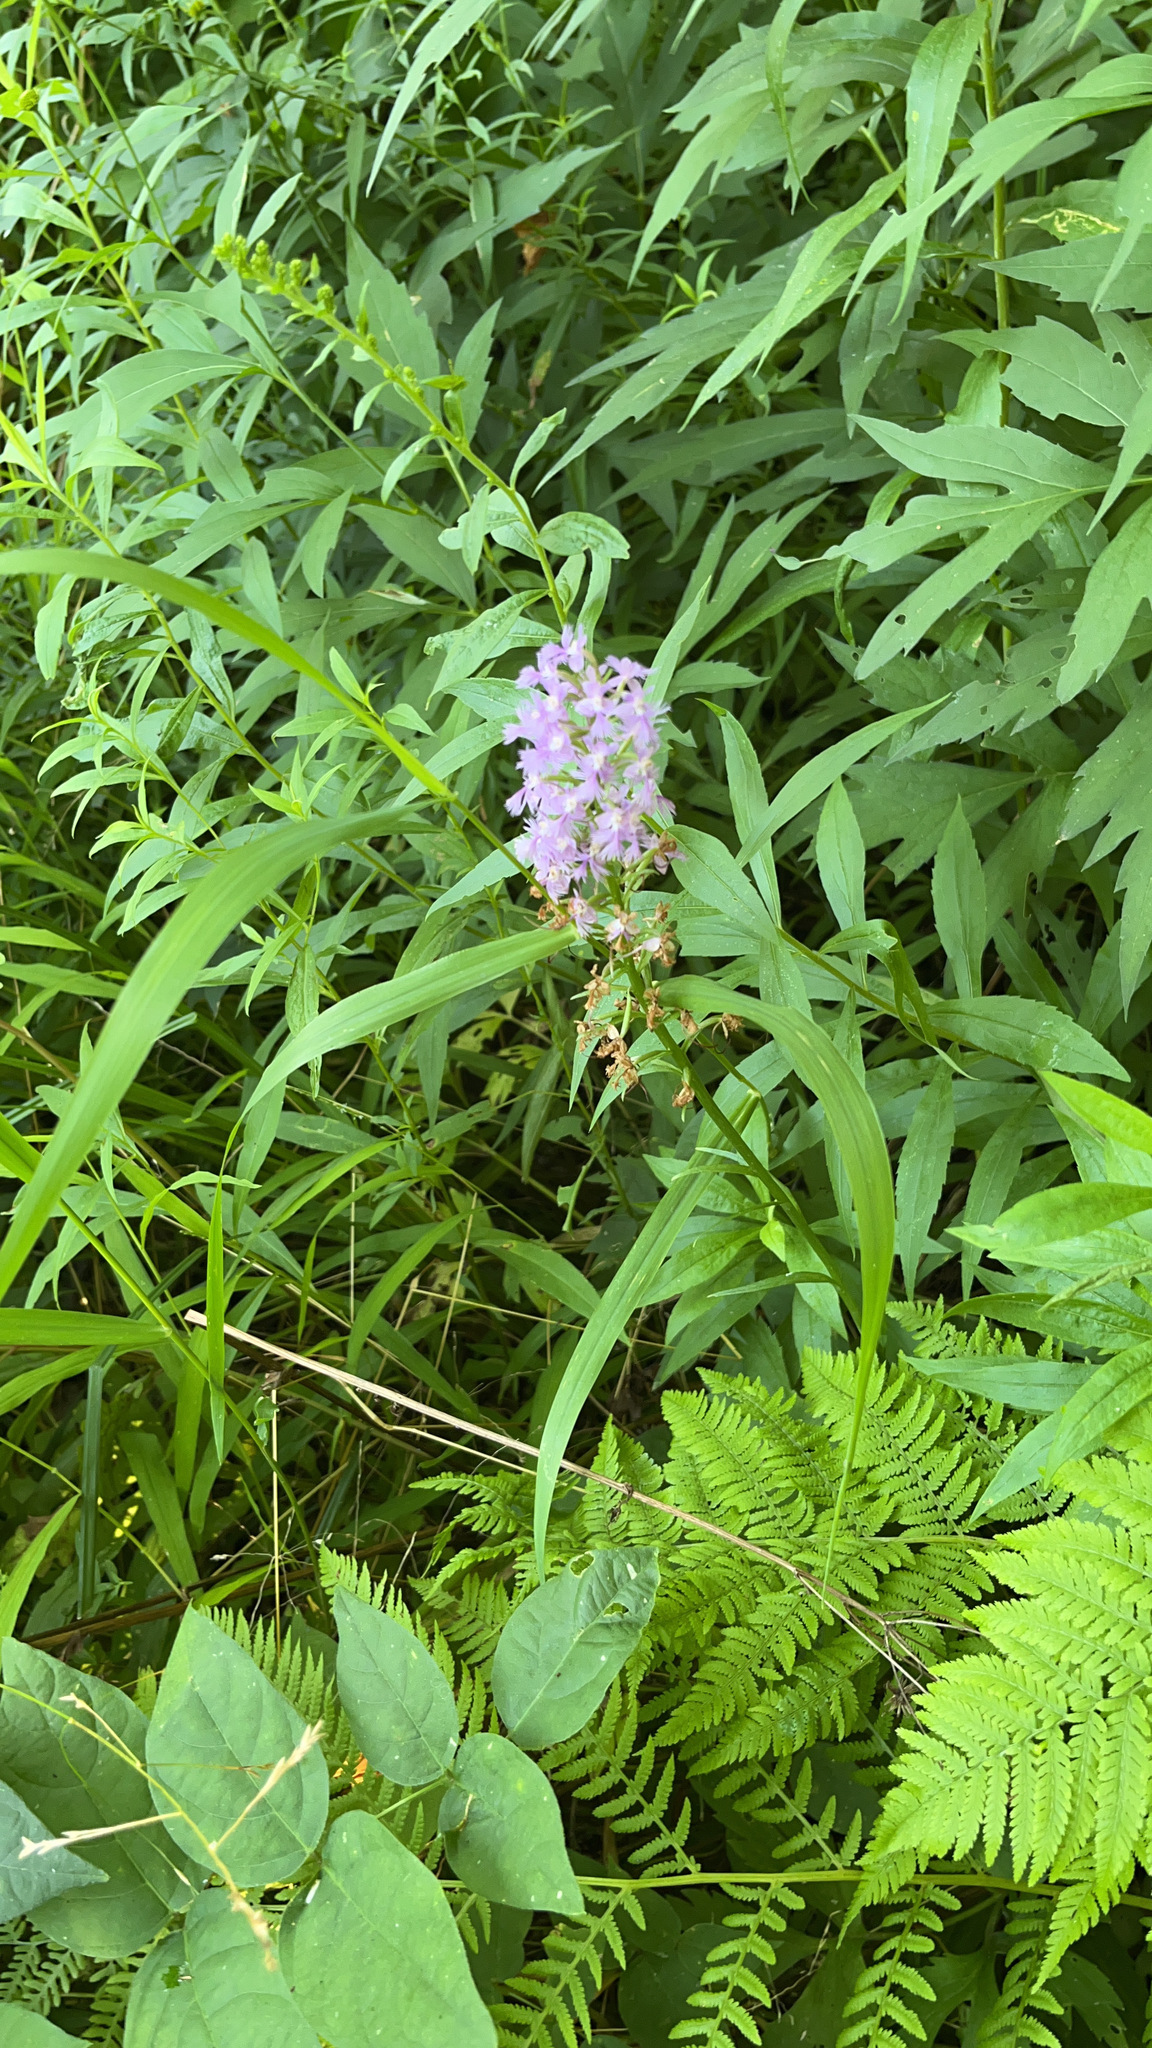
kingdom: Plantae
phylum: Tracheophyta
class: Liliopsida
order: Asparagales
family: Orchidaceae
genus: Platanthera
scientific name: Platanthera psycodes
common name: Lesser purple fringed orchid
